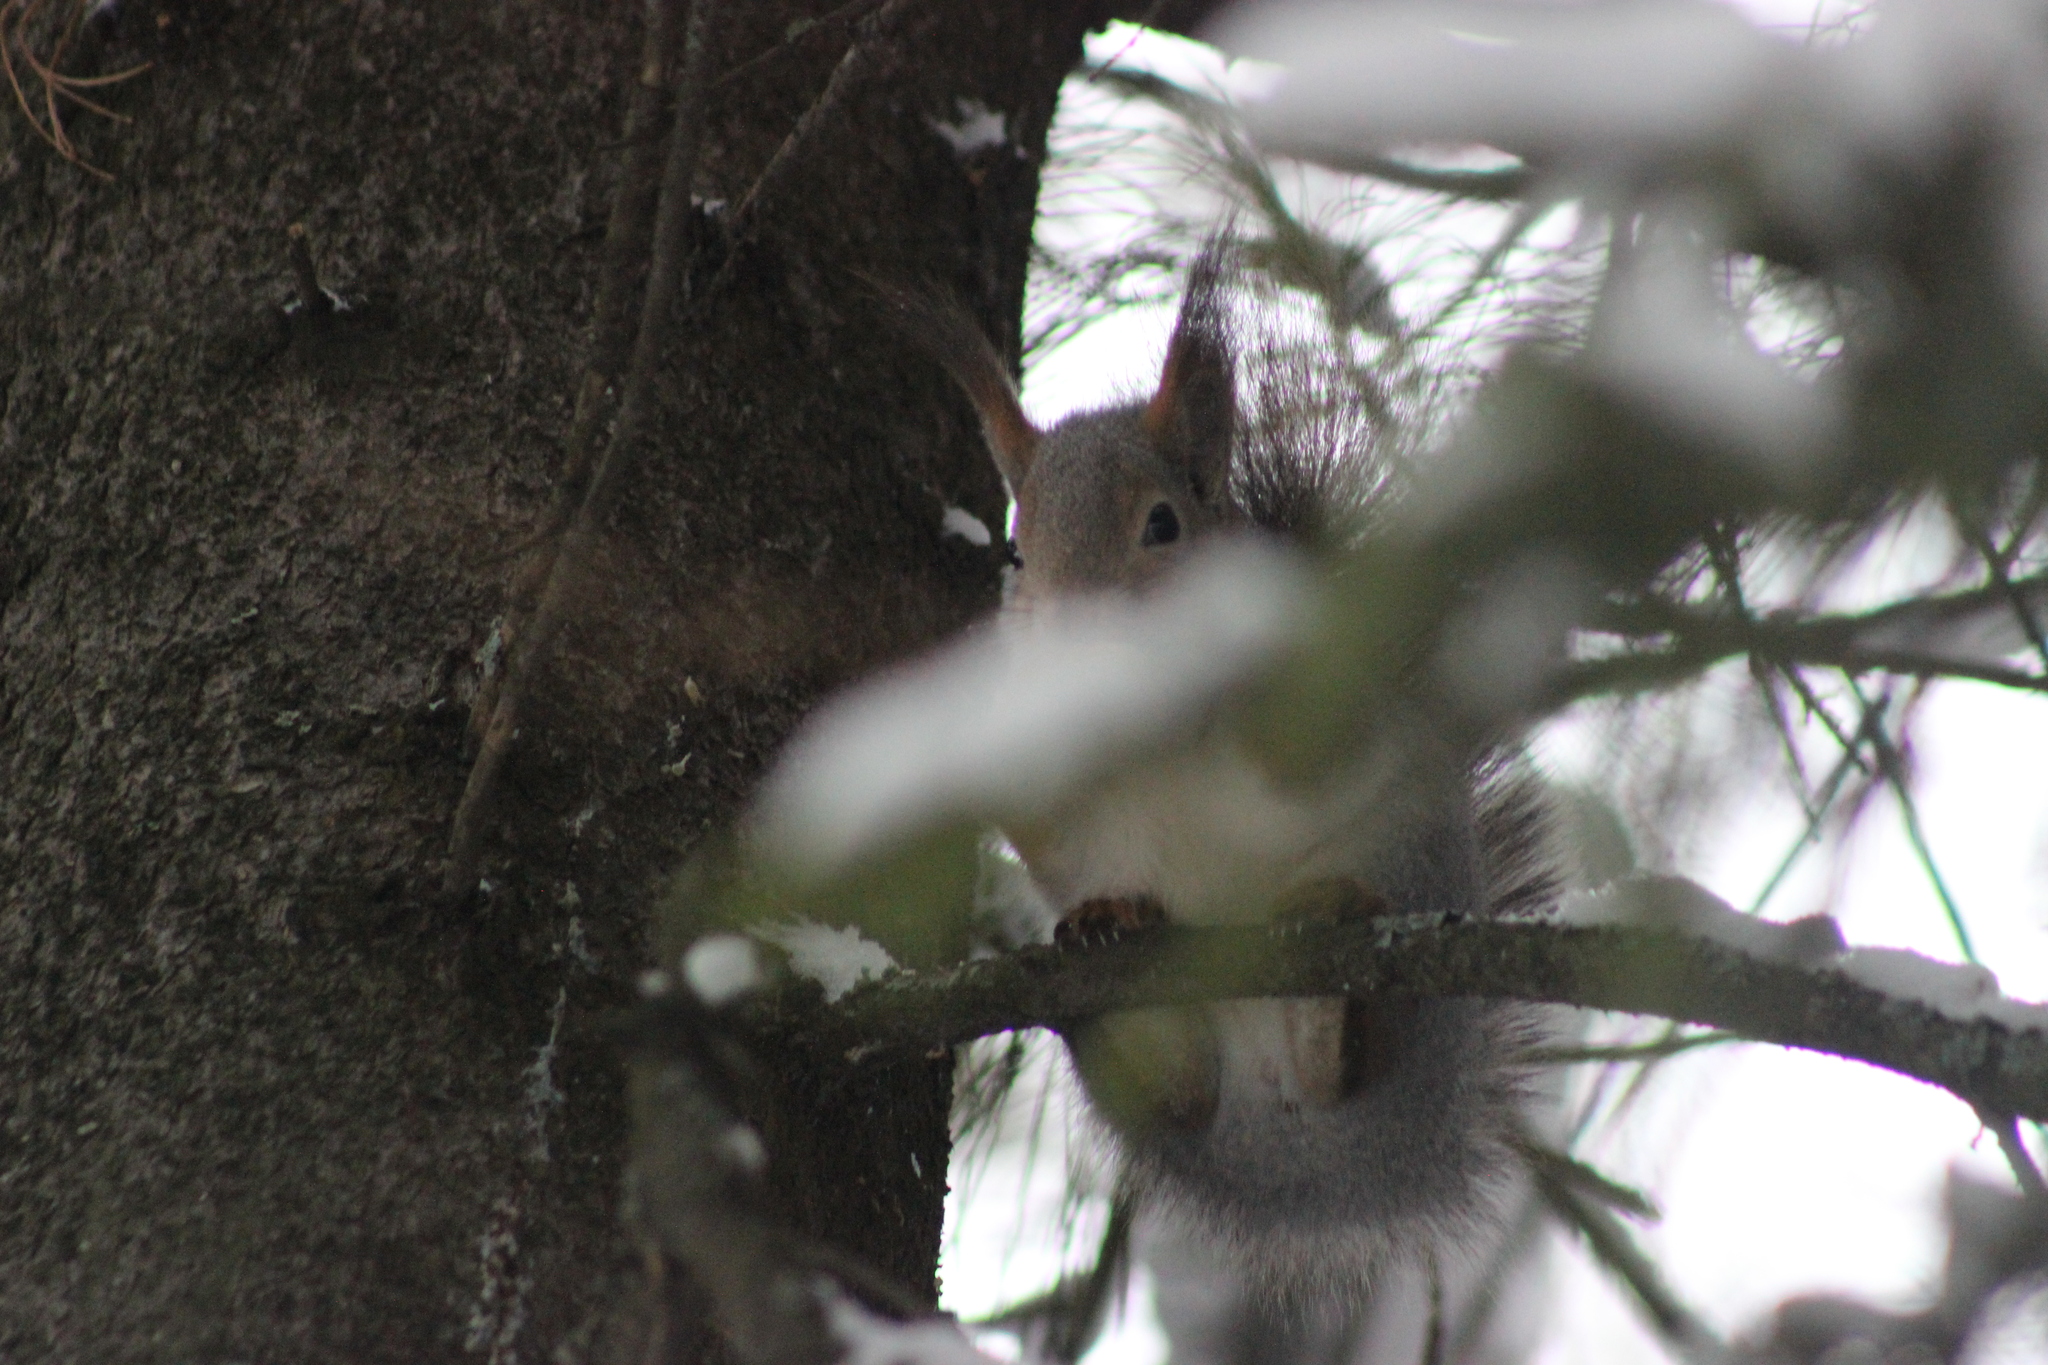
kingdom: Animalia
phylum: Chordata
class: Mammalia
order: Rodentia
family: Sciuridae
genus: Sciurus
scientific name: Sciurus vulgaris
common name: Eurasian red squirrel
